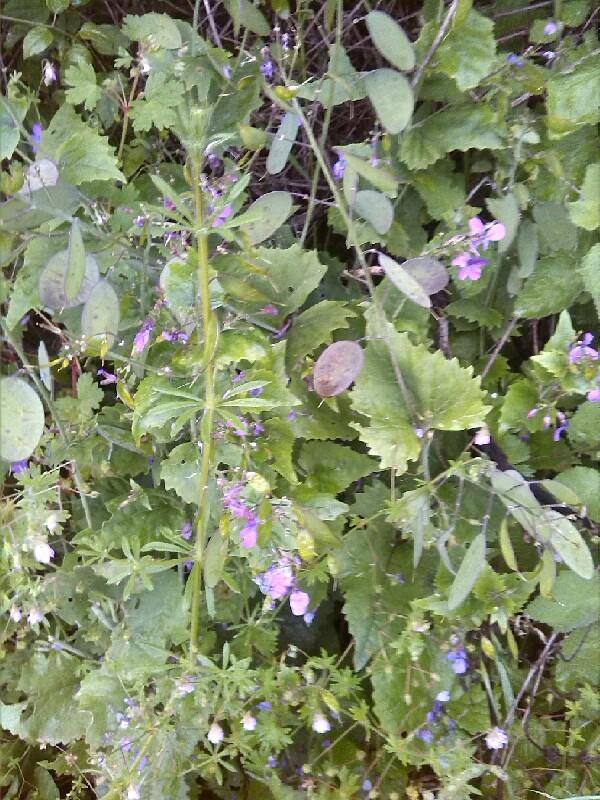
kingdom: Plantae
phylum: Tracheophyta
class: Magnoliopsida
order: Brassicales
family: Brassicaceae
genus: Lunaria
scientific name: Lunaria annua
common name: Honesty
